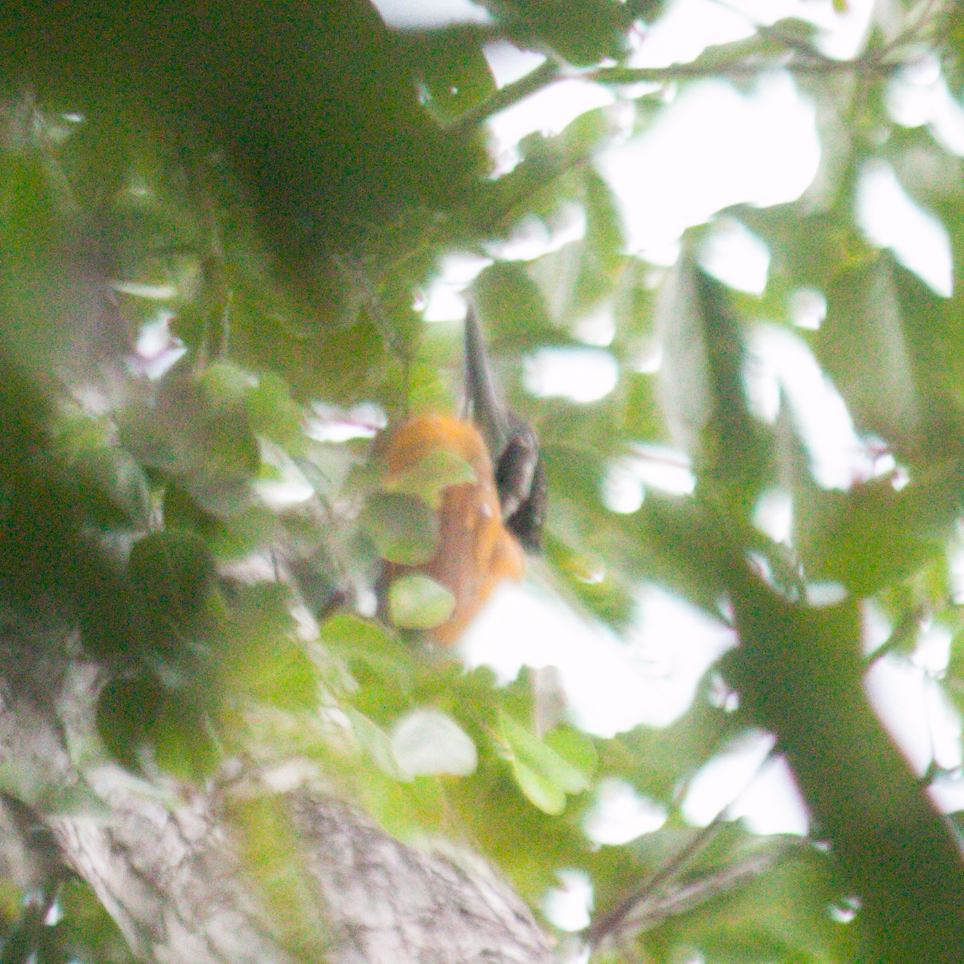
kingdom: Animalia
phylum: Chordata
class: Aves
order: Piciformes
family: Picidae
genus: Chrysocolaptes
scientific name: Chrysocolaptes guttacristatus
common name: Greater flameback
